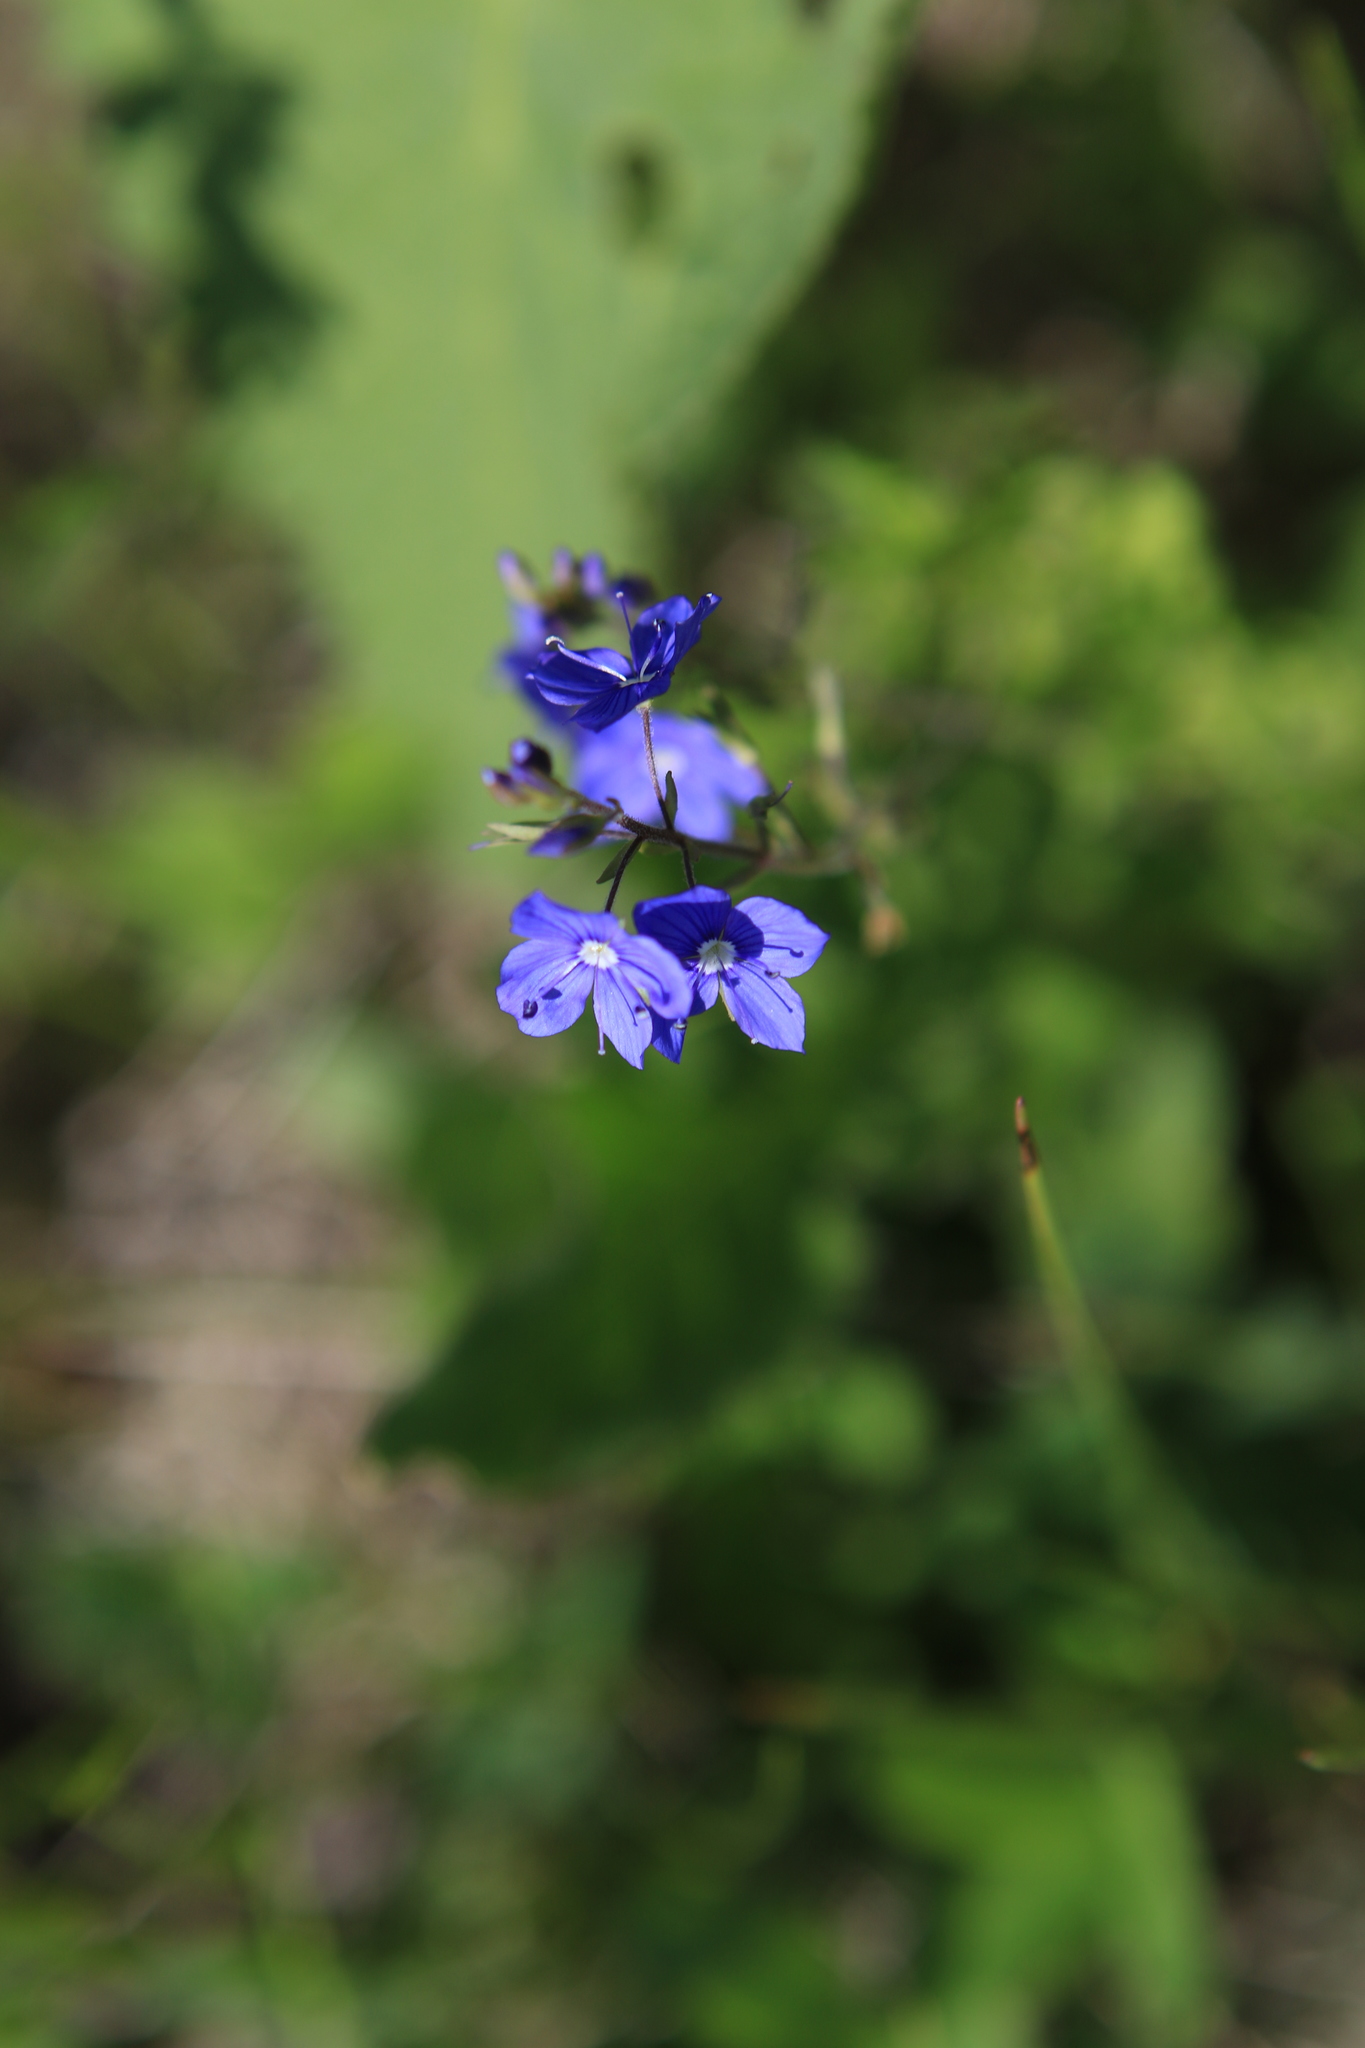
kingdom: Plantae
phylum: Tracheophyta
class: Magnoliopsida
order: Lamiales
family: Plantaginaceae
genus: Veronica
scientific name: Veronica krylovii
